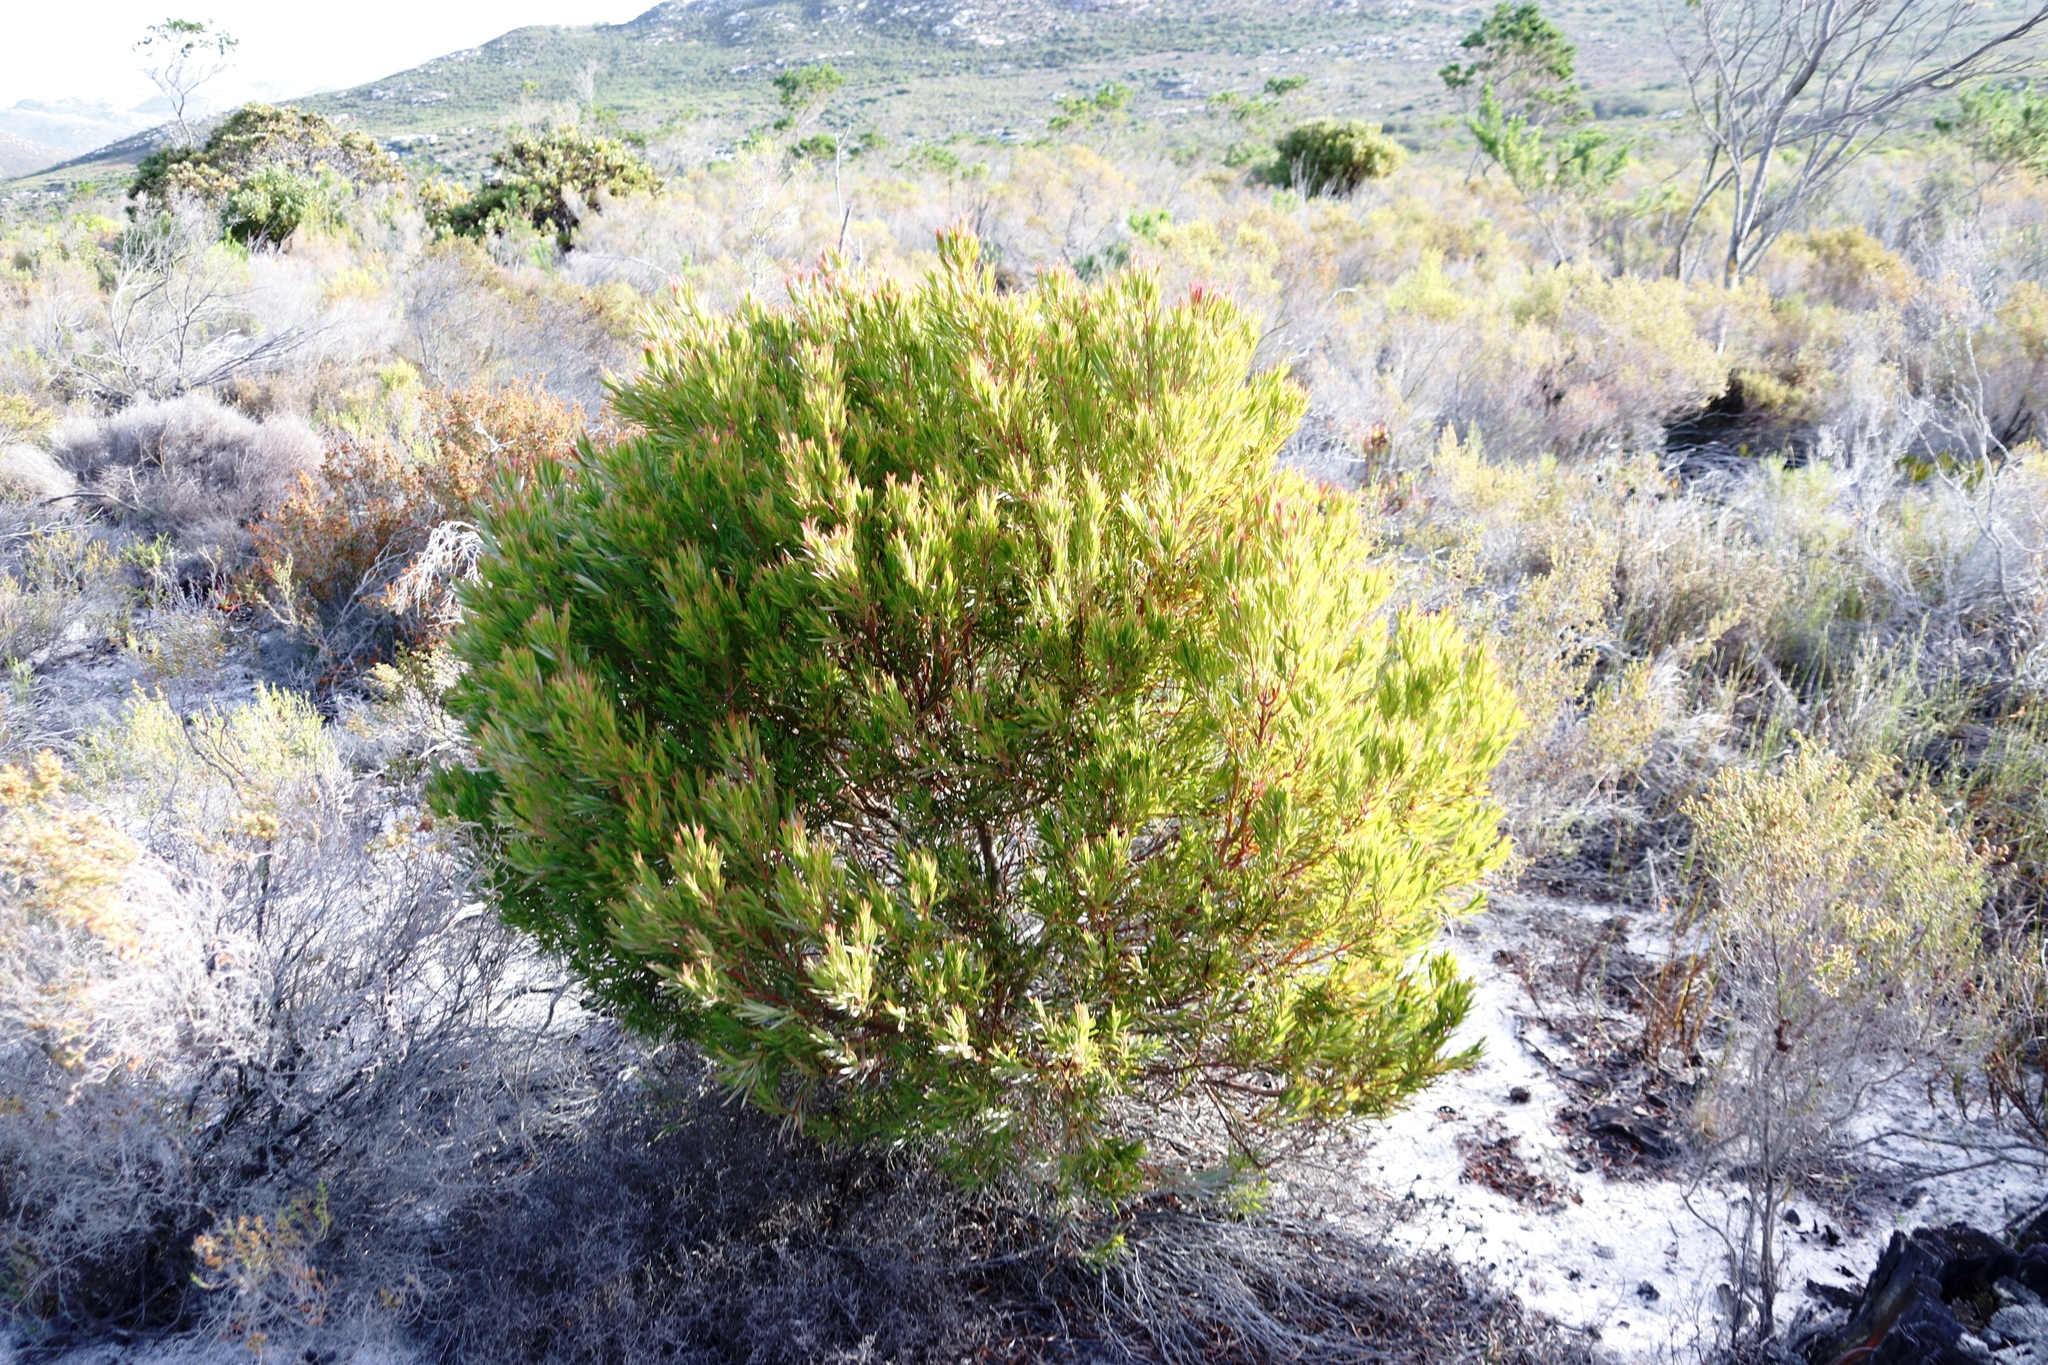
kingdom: Plantae
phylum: Tracheophyta
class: Magnoliopsida
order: Proteales
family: Proteaceae
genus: Leucadendron
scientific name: Leucadendron xanthoconus
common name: Sickle-leaf conebush
